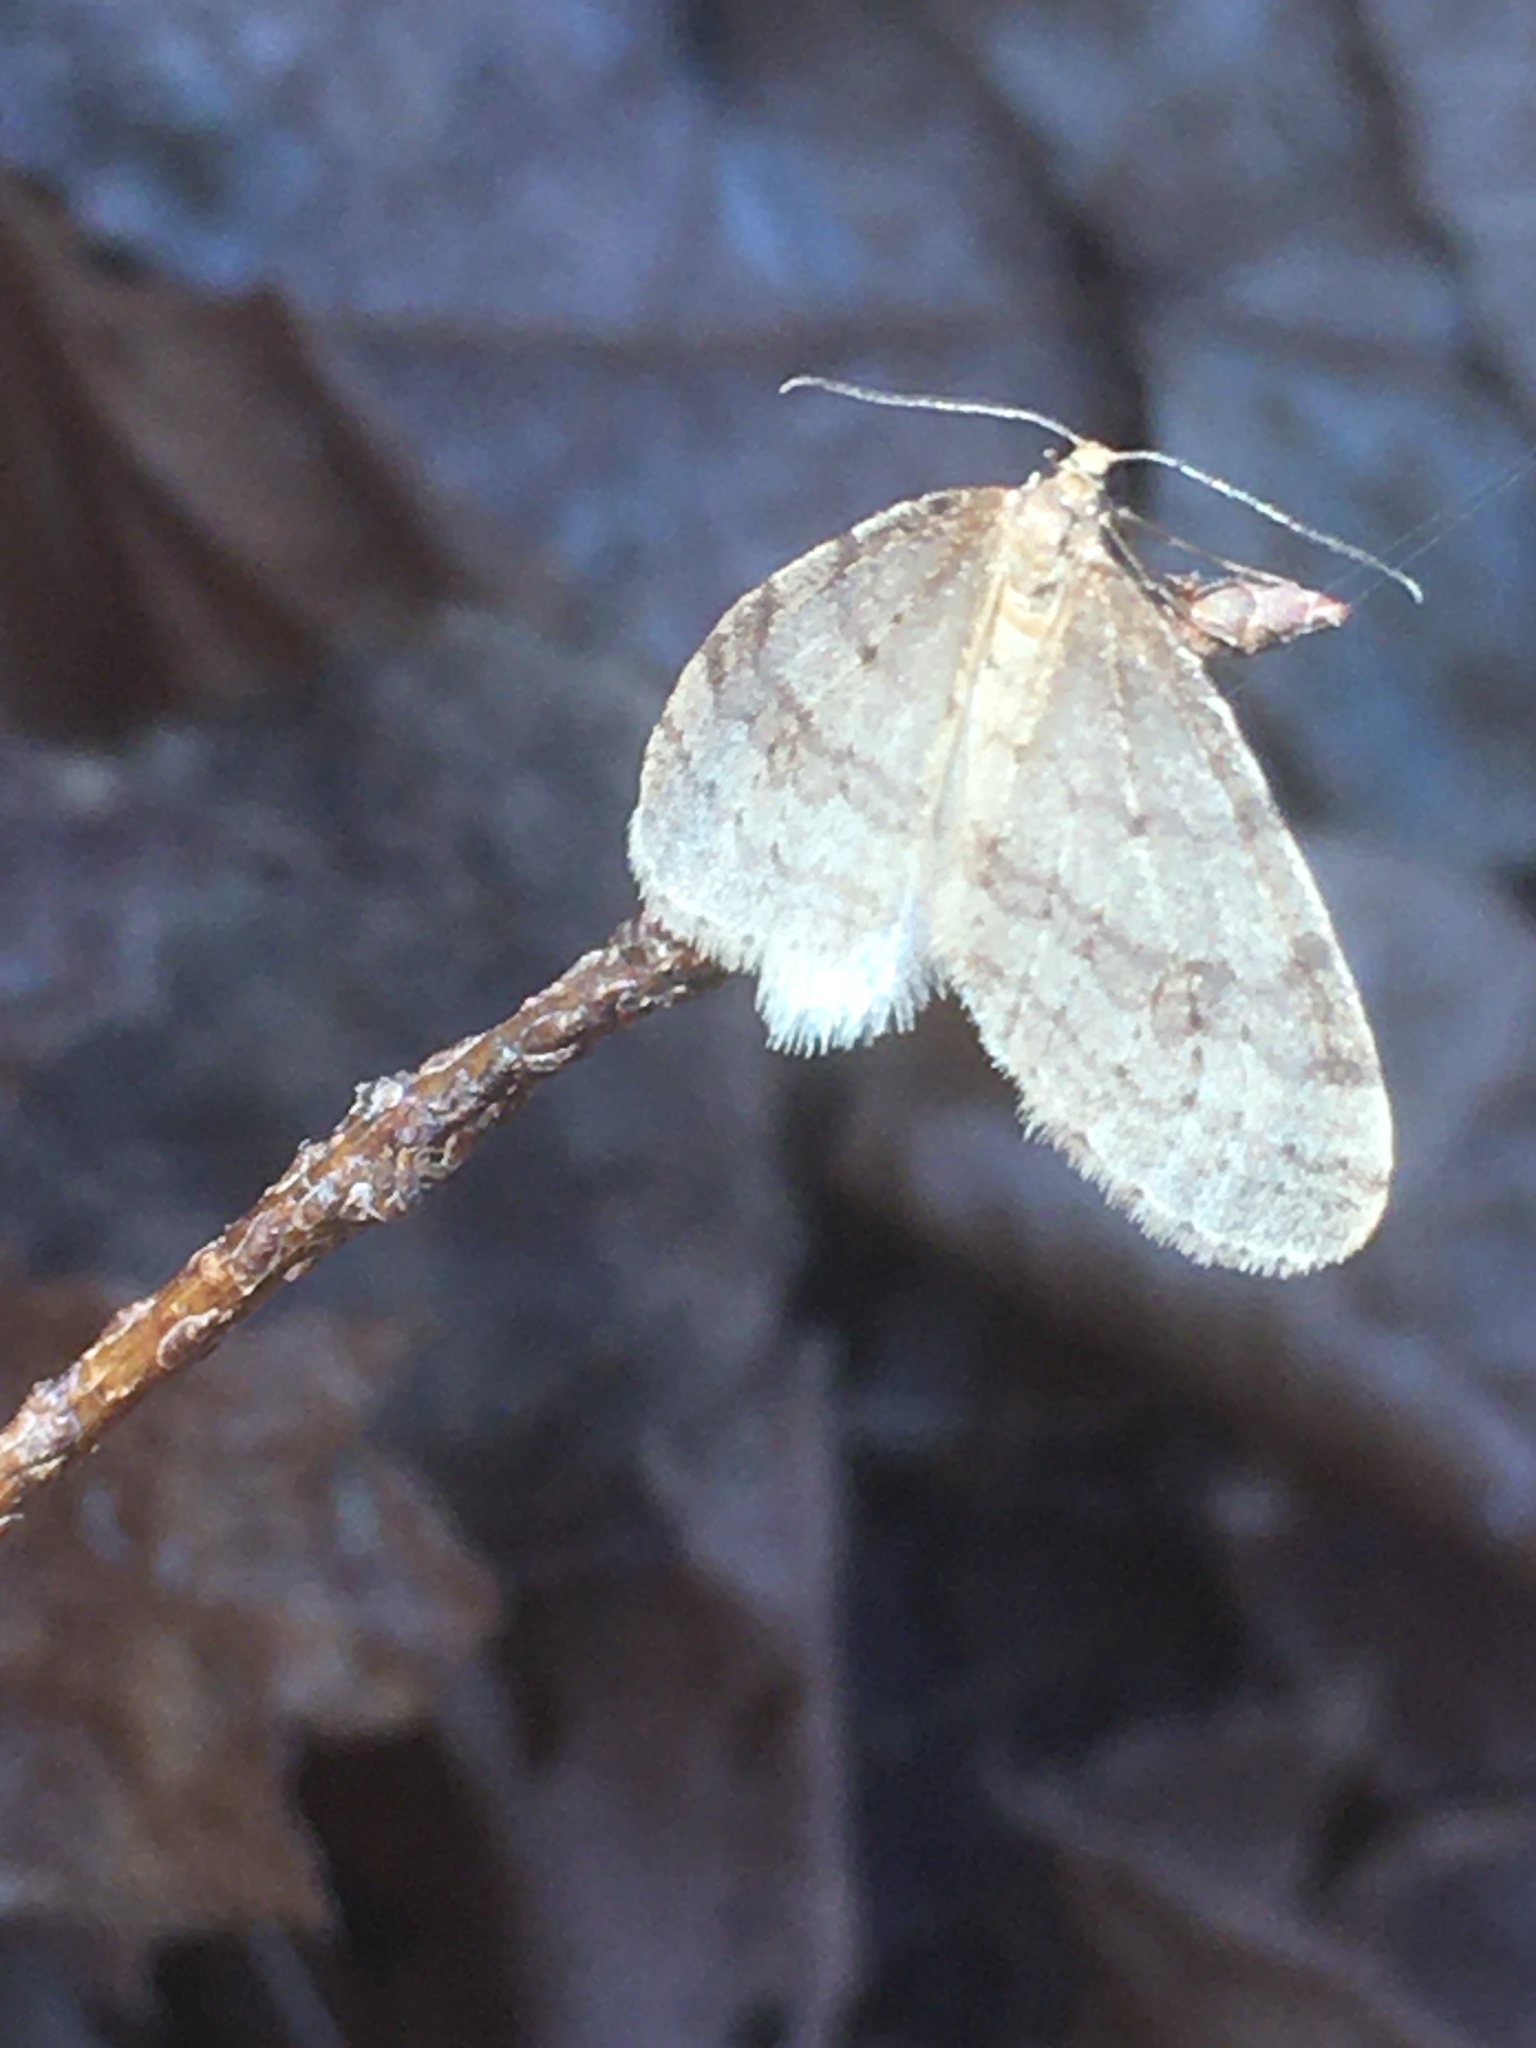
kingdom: Animalia
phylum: Arthropoda
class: Insecta
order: Lepidoptera
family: Geometridae
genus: Operophtera
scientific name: Operophtera bruceata
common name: Bruce spanworm
